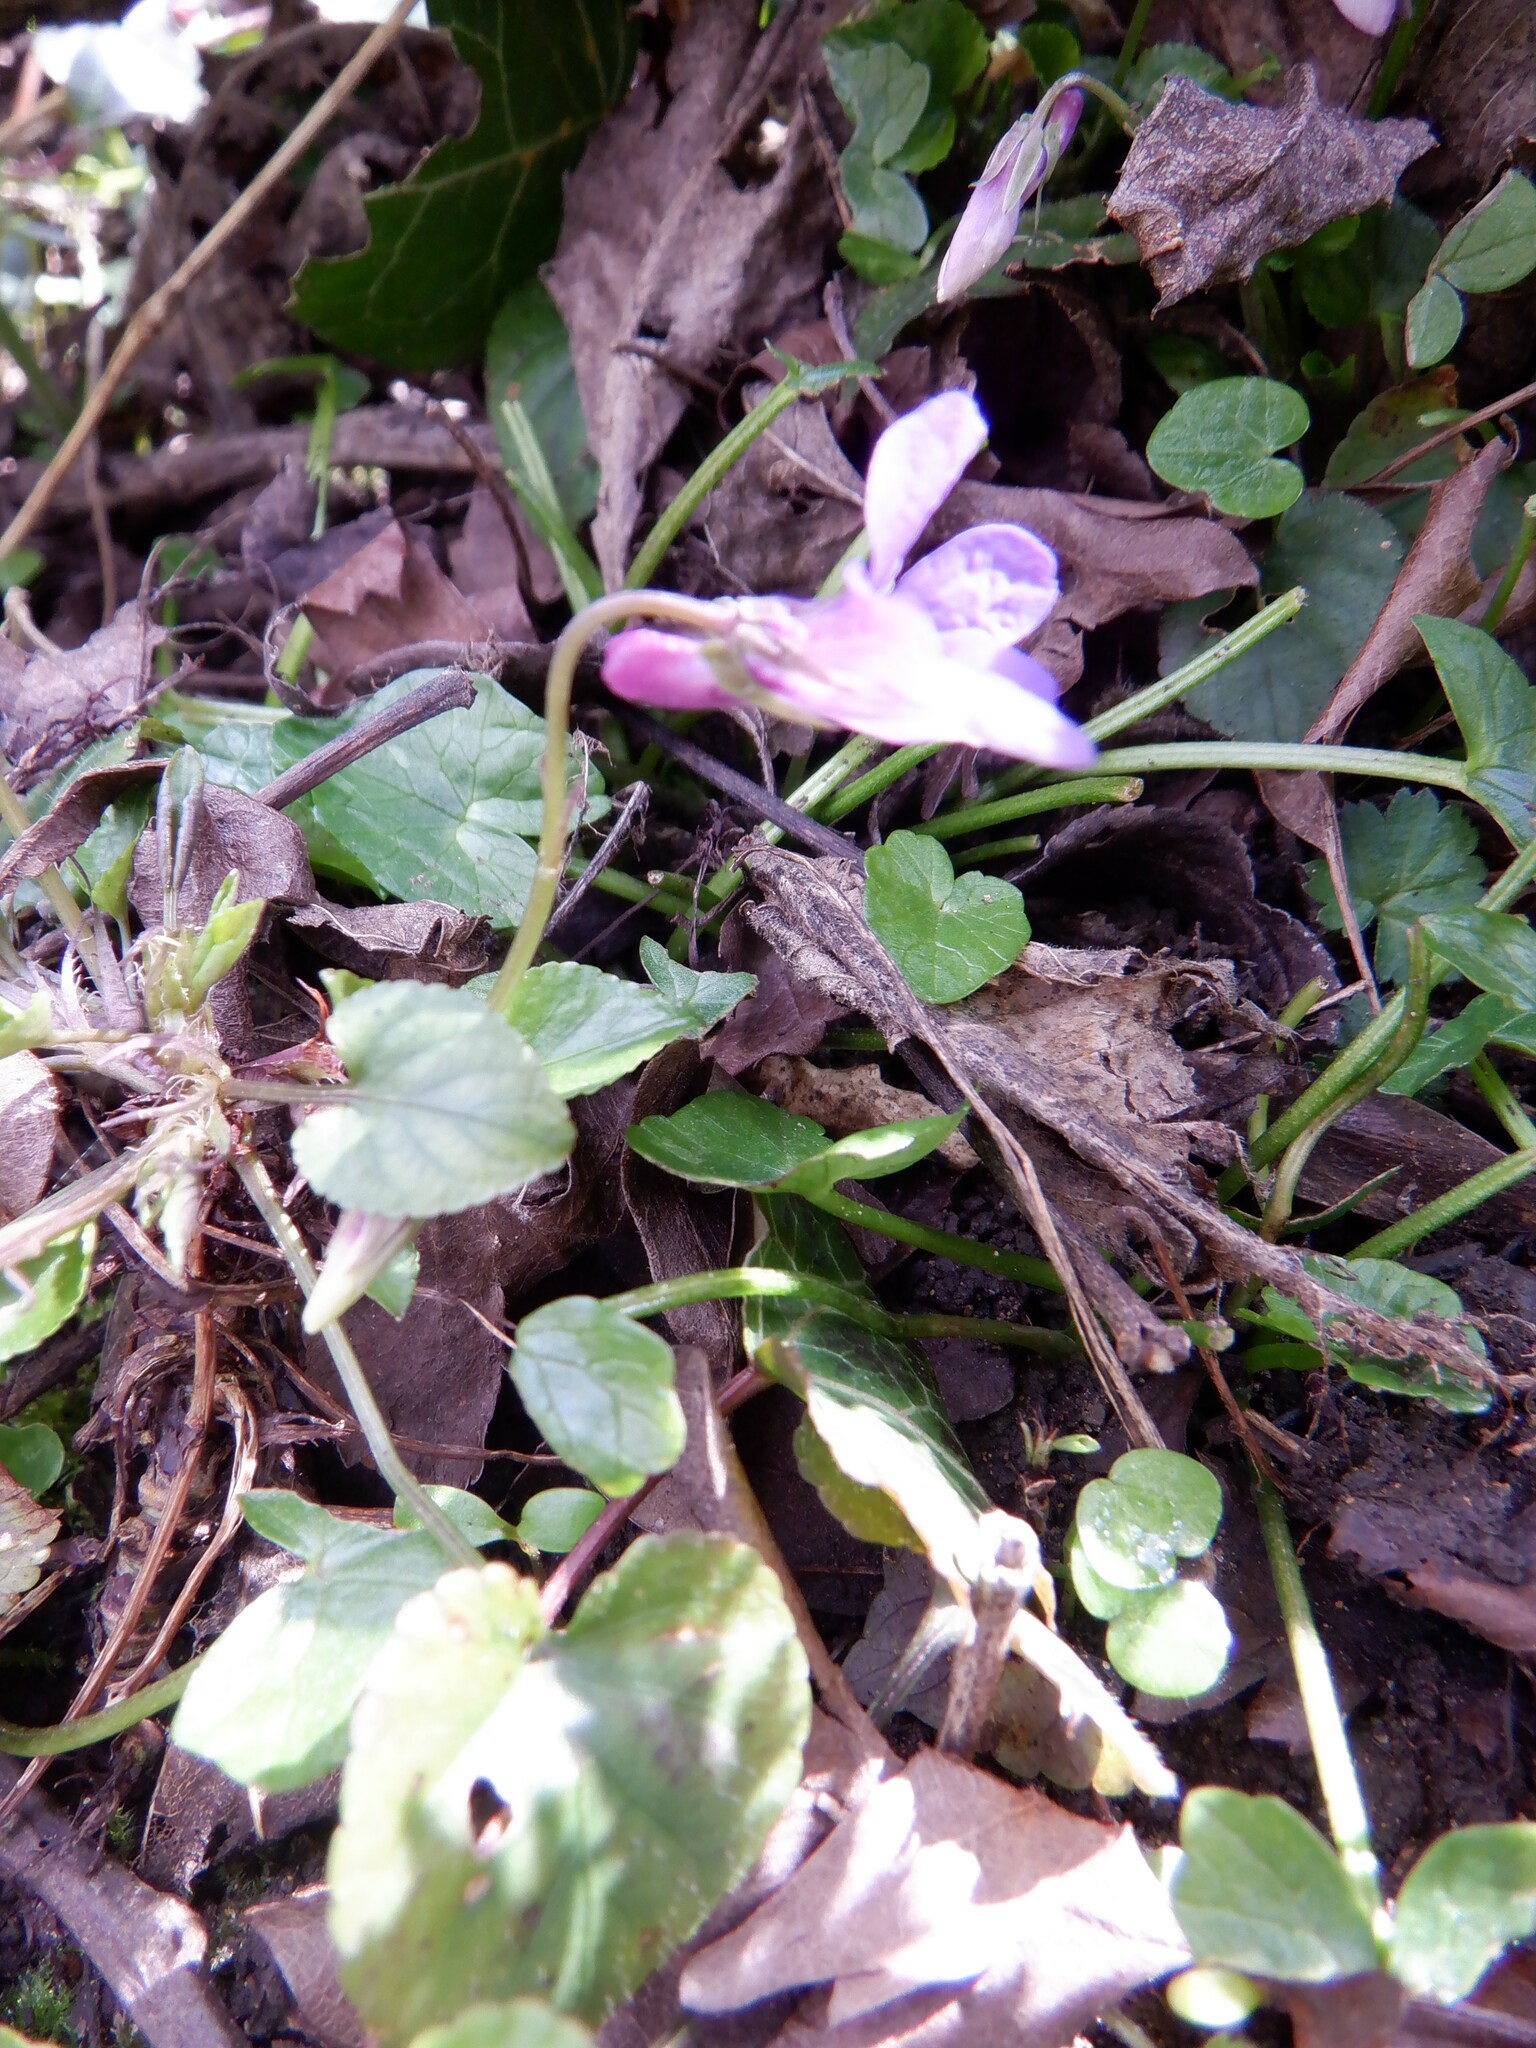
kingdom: Plantae
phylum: Tracheophyta
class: Magnoliopsida
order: Malpighiales
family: Violaceae
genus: Viola
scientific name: Viola reichenbachiana
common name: Early dog-violet
